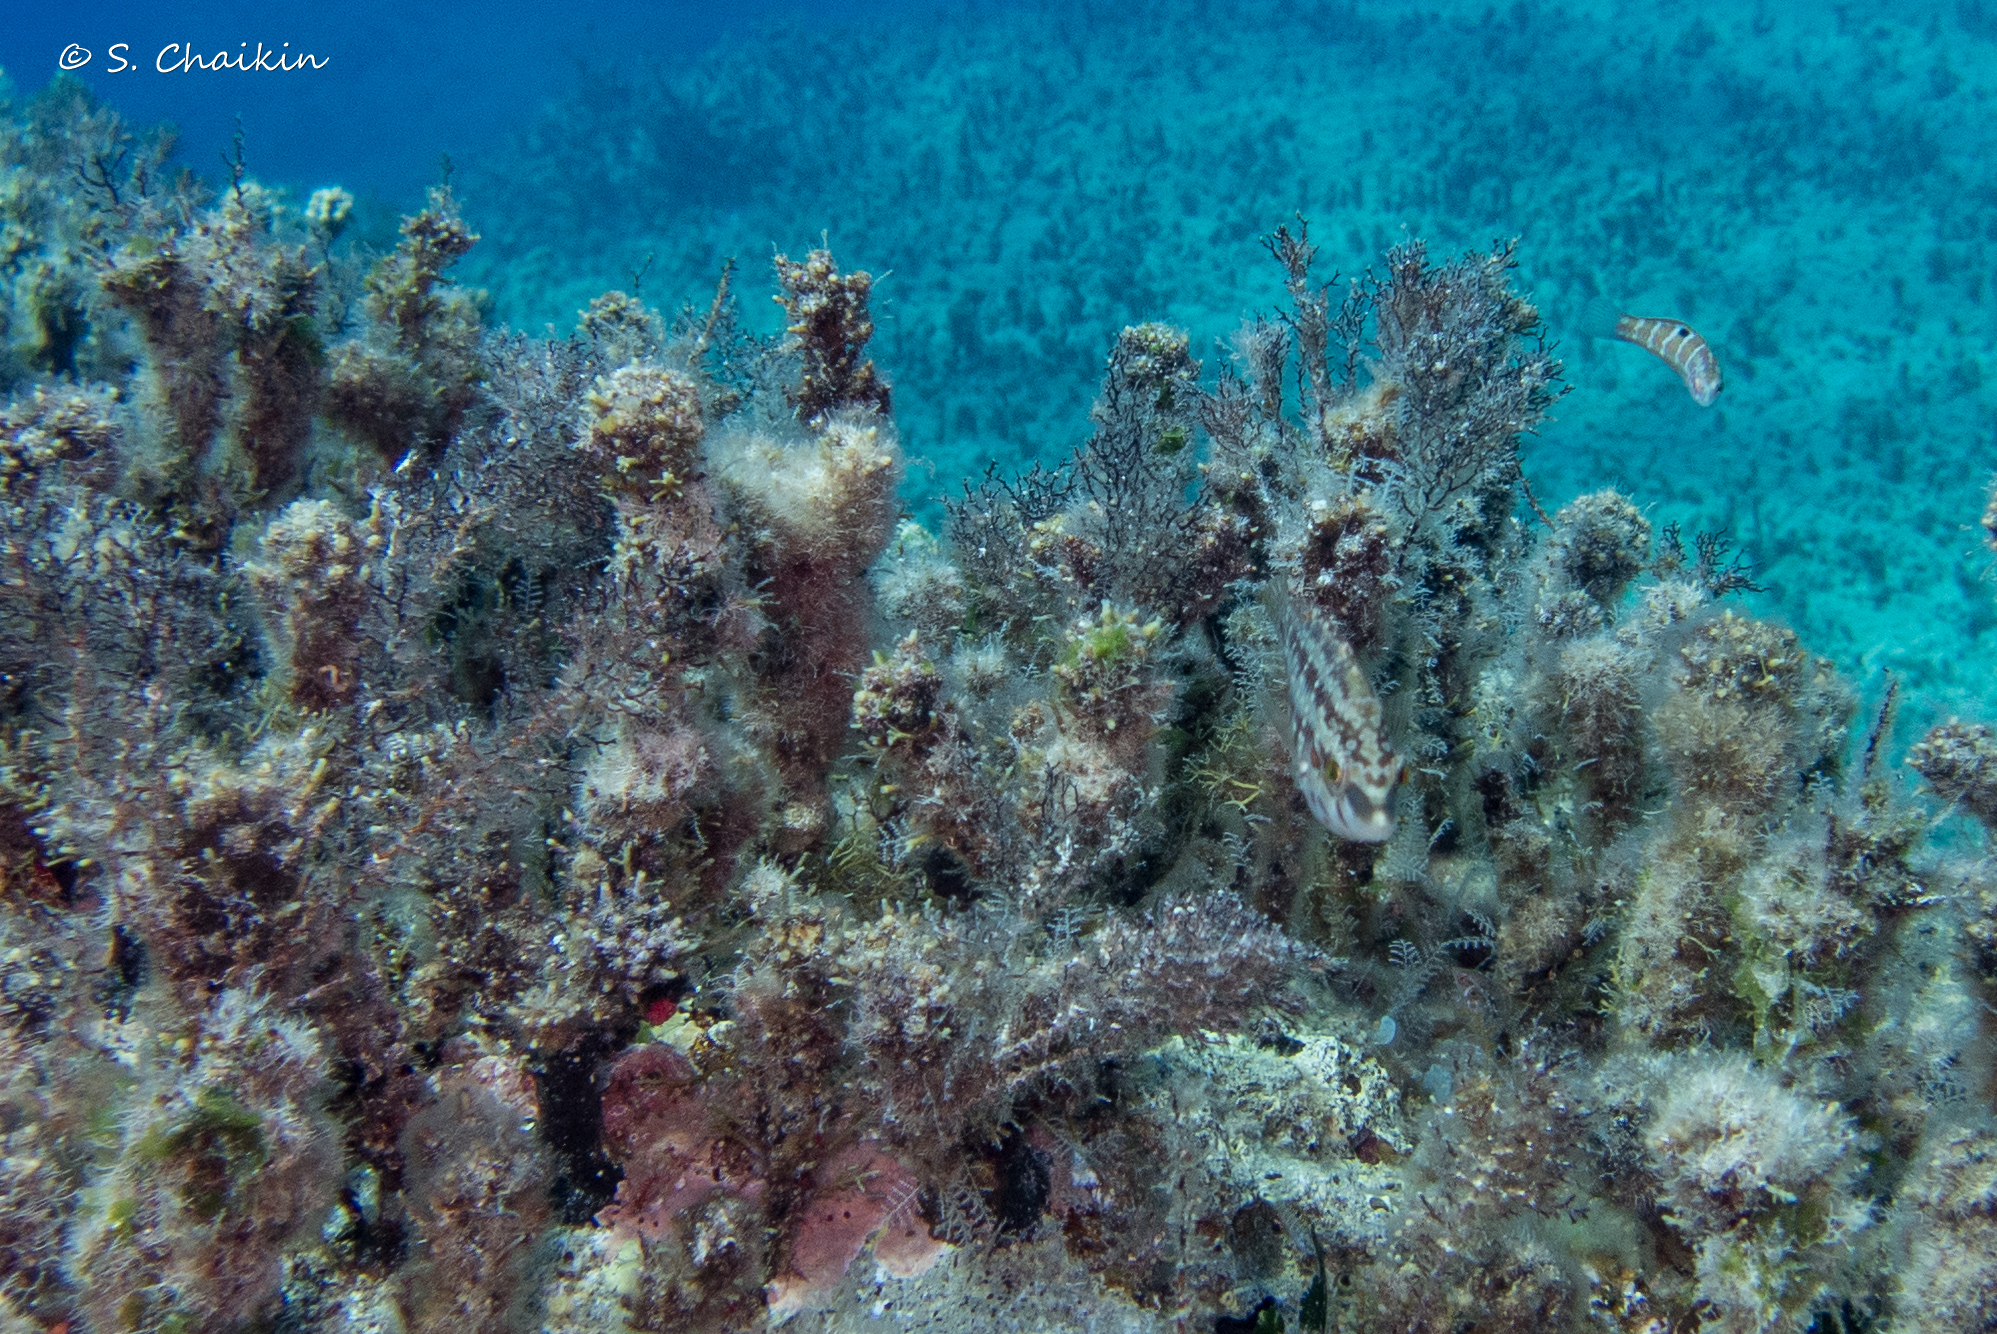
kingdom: Animalia
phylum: Chordata
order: Perciformes
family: Labridae
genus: Symphodus
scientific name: Symphodus roissali
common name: Five-spotted wrasse
